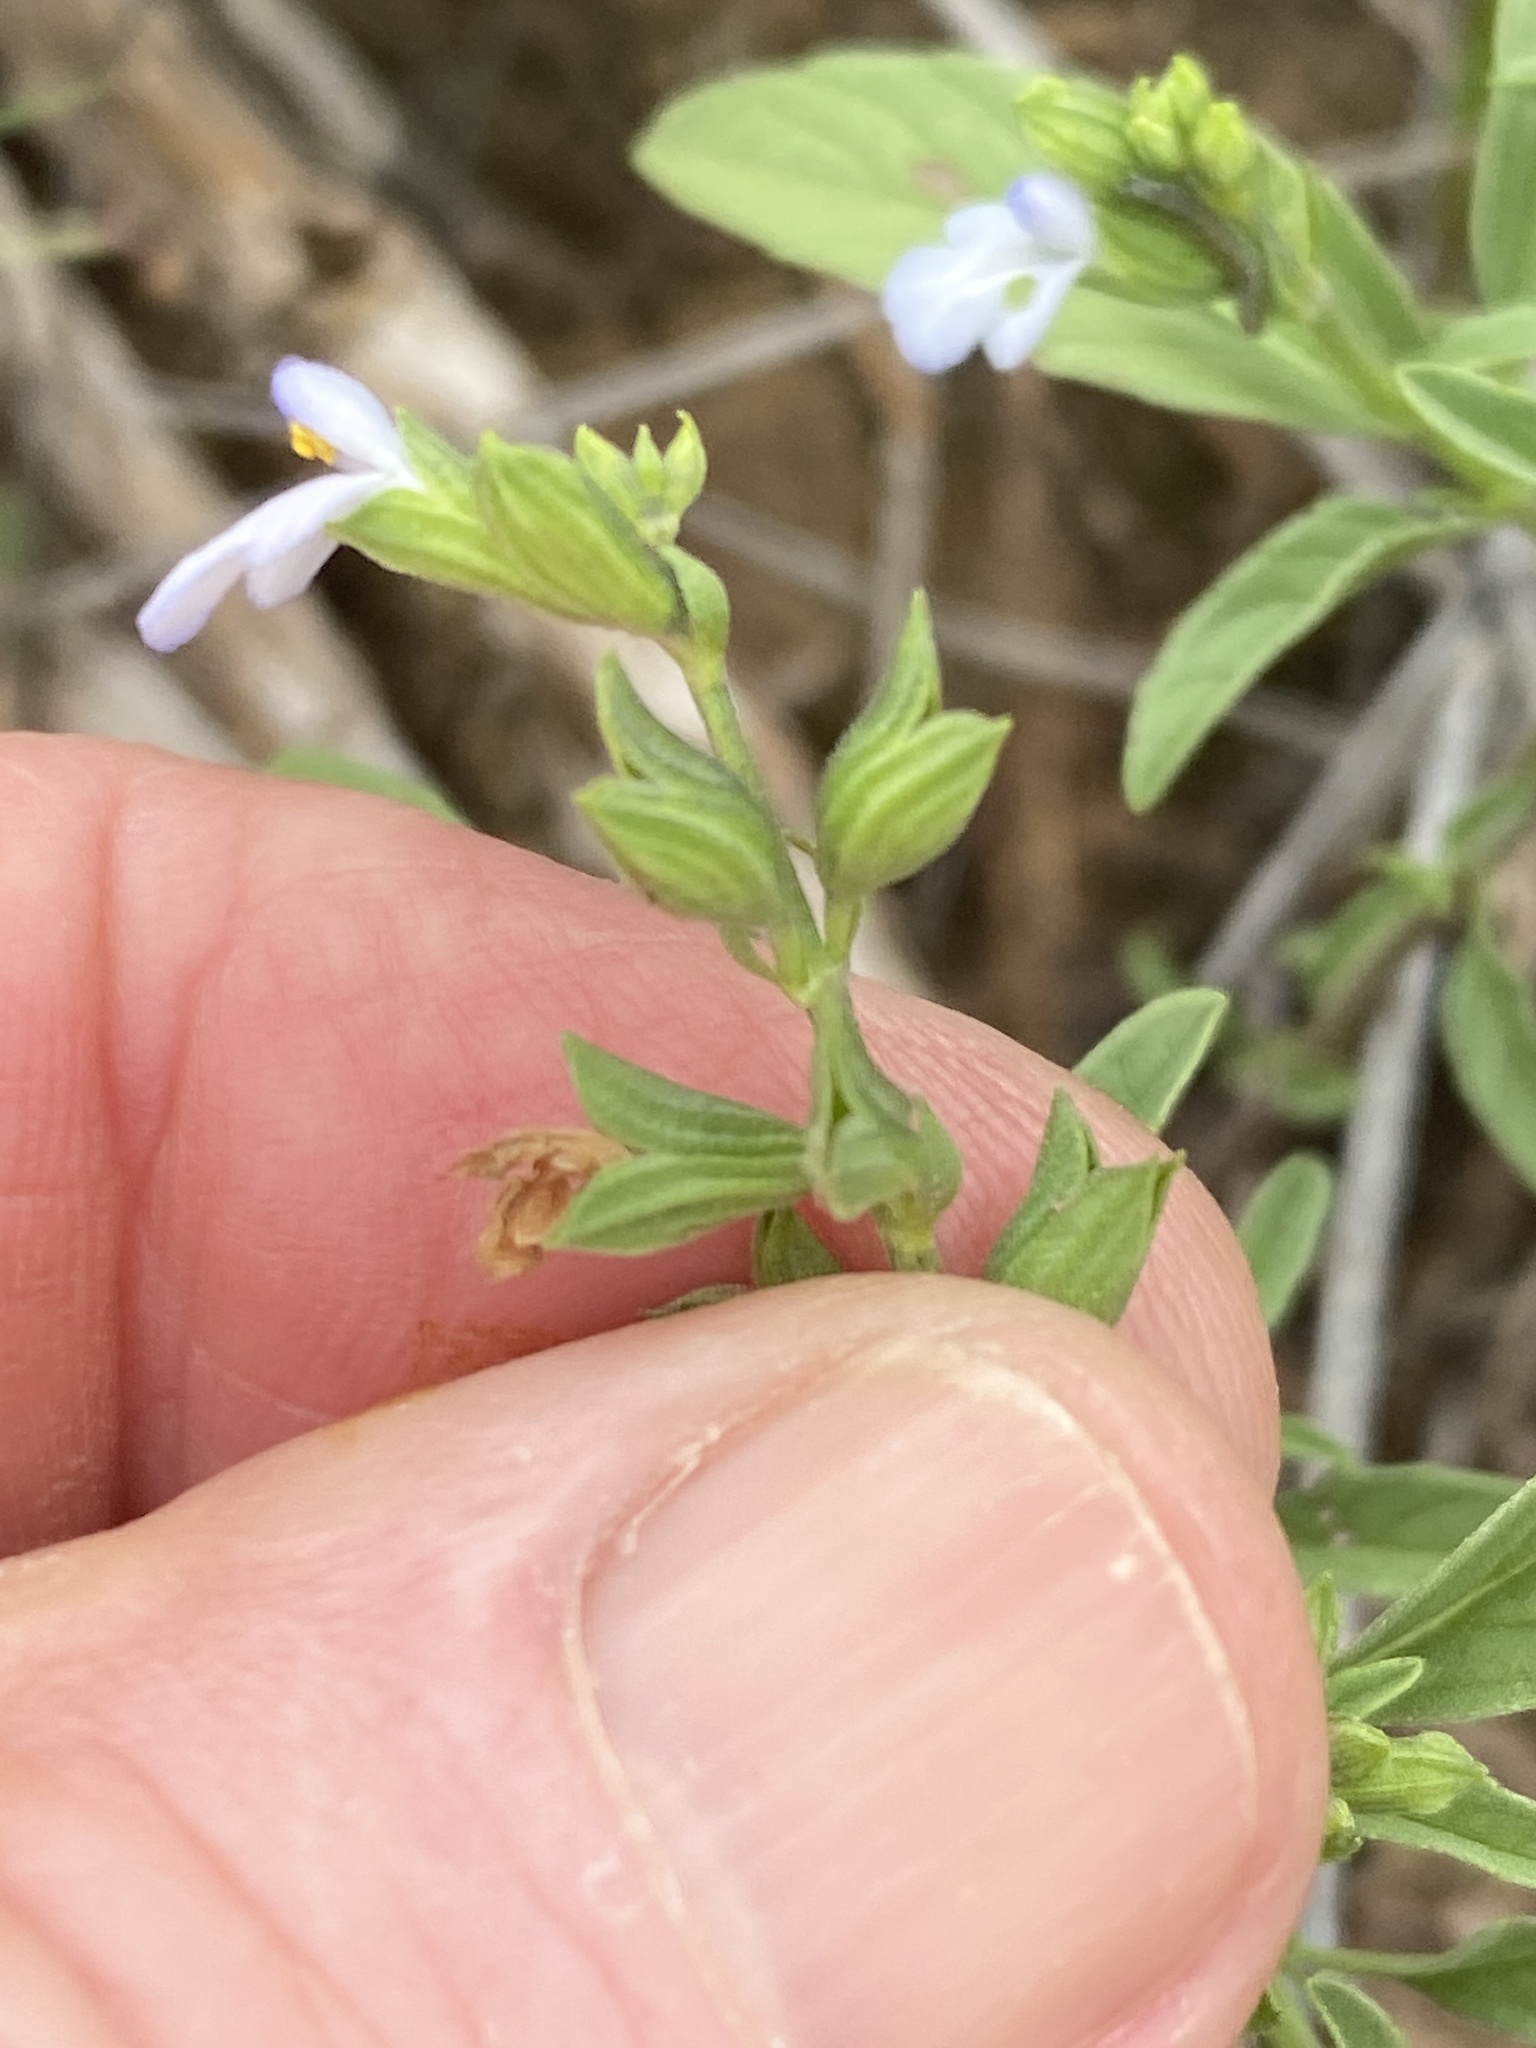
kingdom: Plantae
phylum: Tracheophyta
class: Magnoliopsida
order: Lamiales
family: Lamiaceae
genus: Salvia
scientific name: Salvia reflexa
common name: Mintweed
